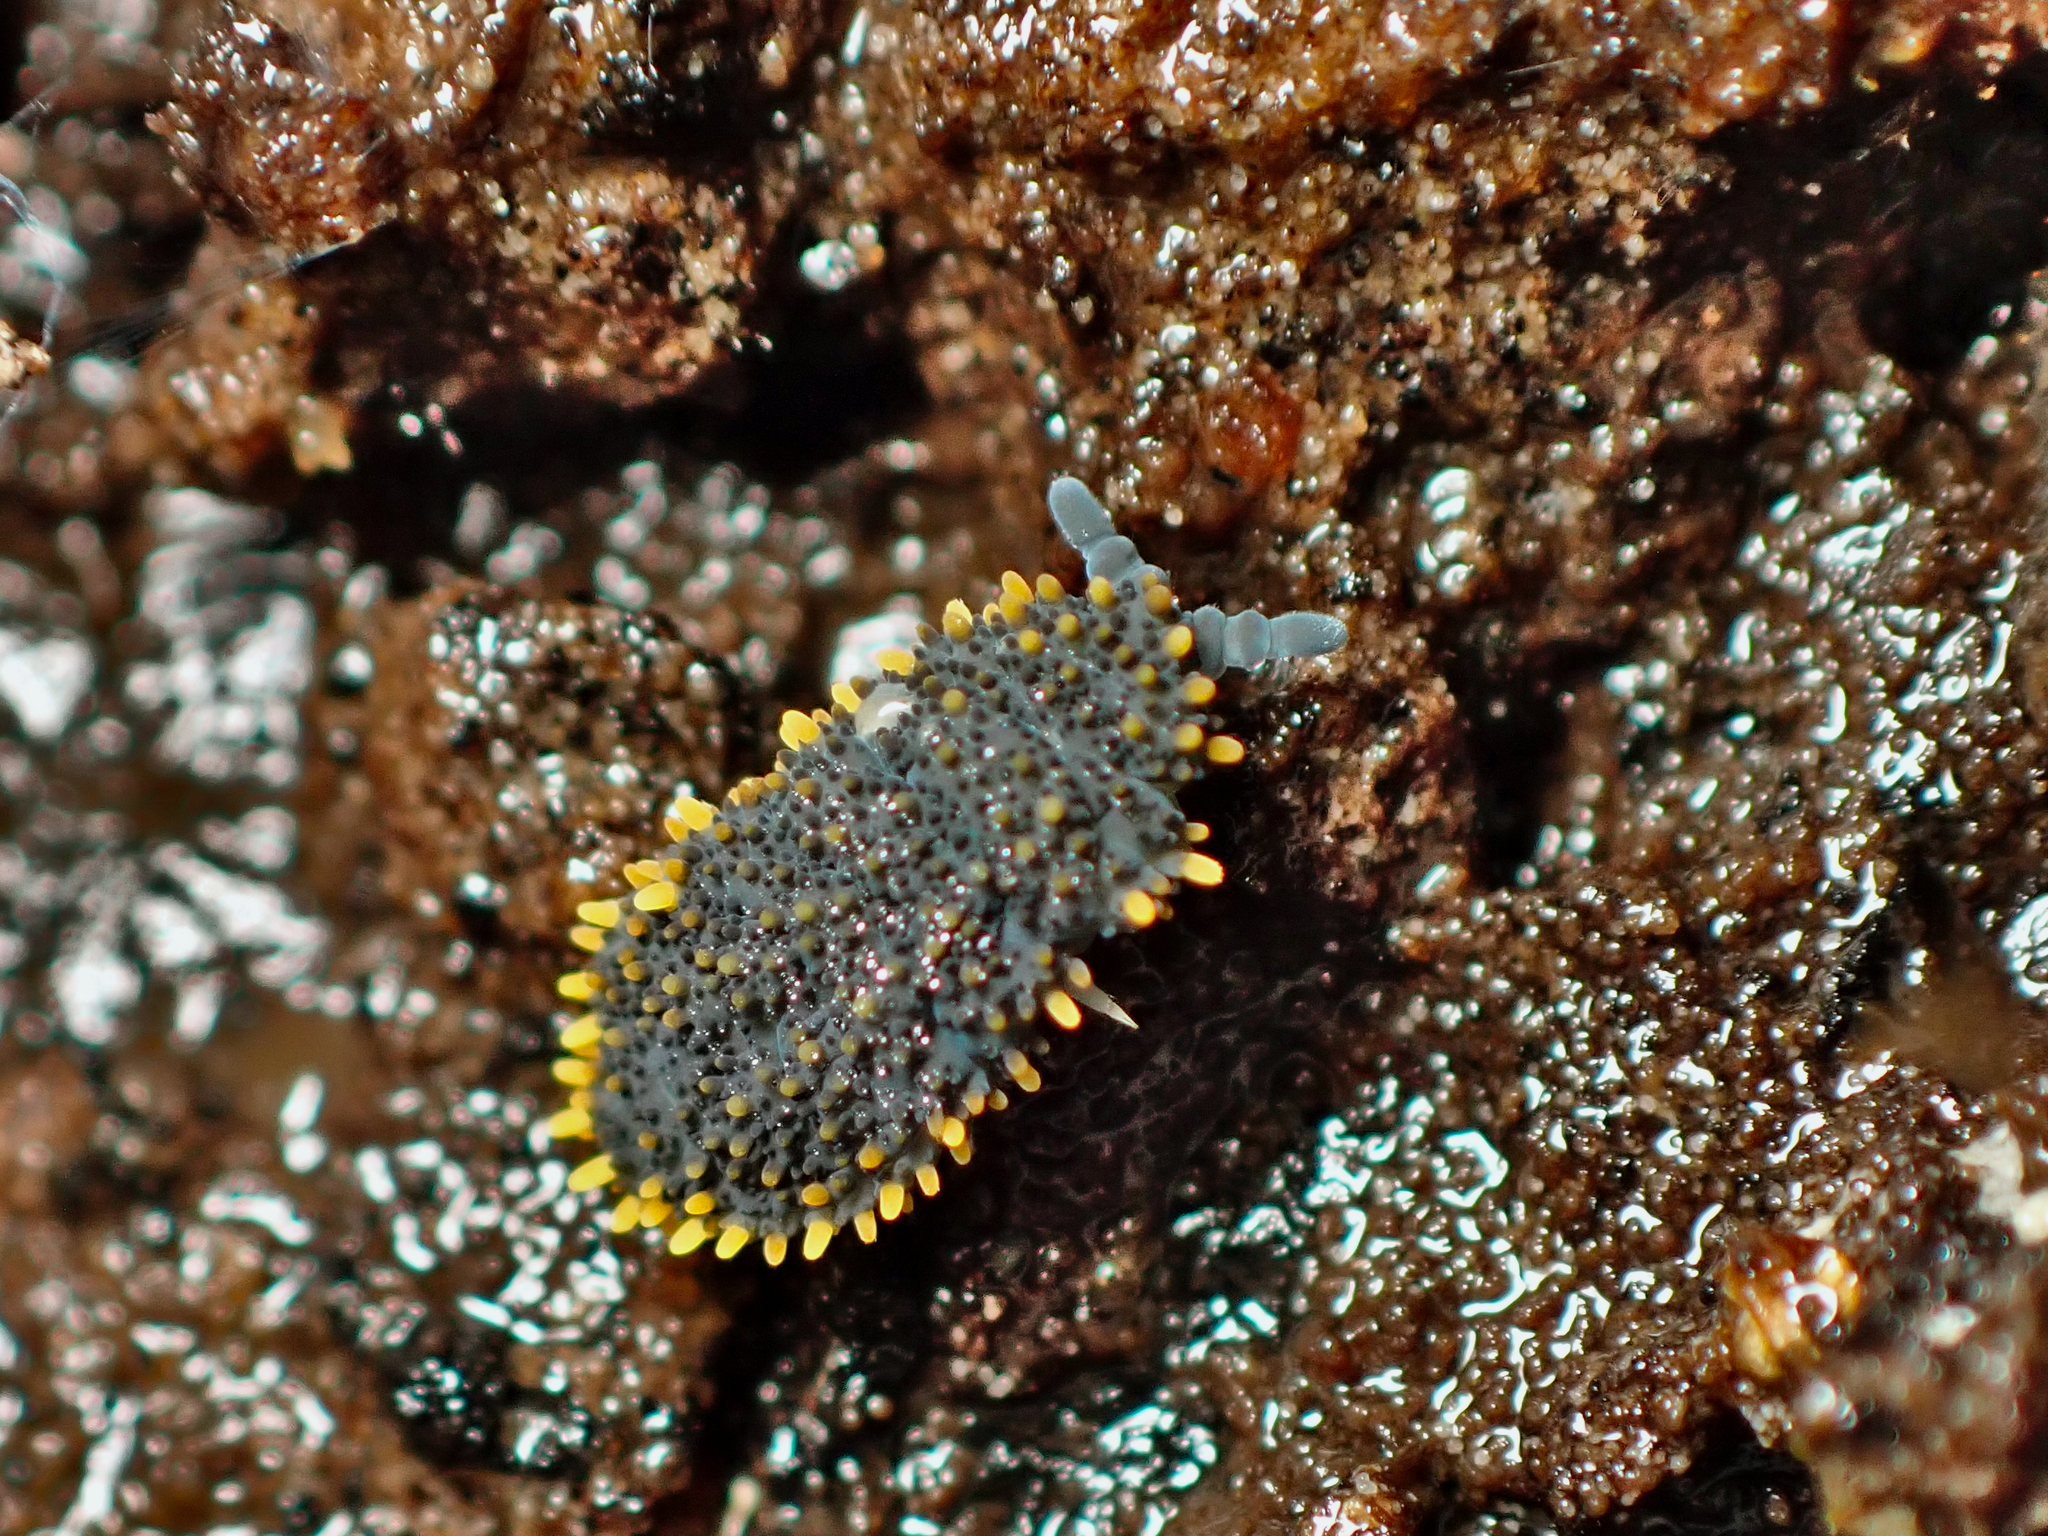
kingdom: Animalia
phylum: Arthropoda
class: Collembola
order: Poduromorpha
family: Neanuridae
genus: Holacanthella
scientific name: Holacanthella laterospinosa
